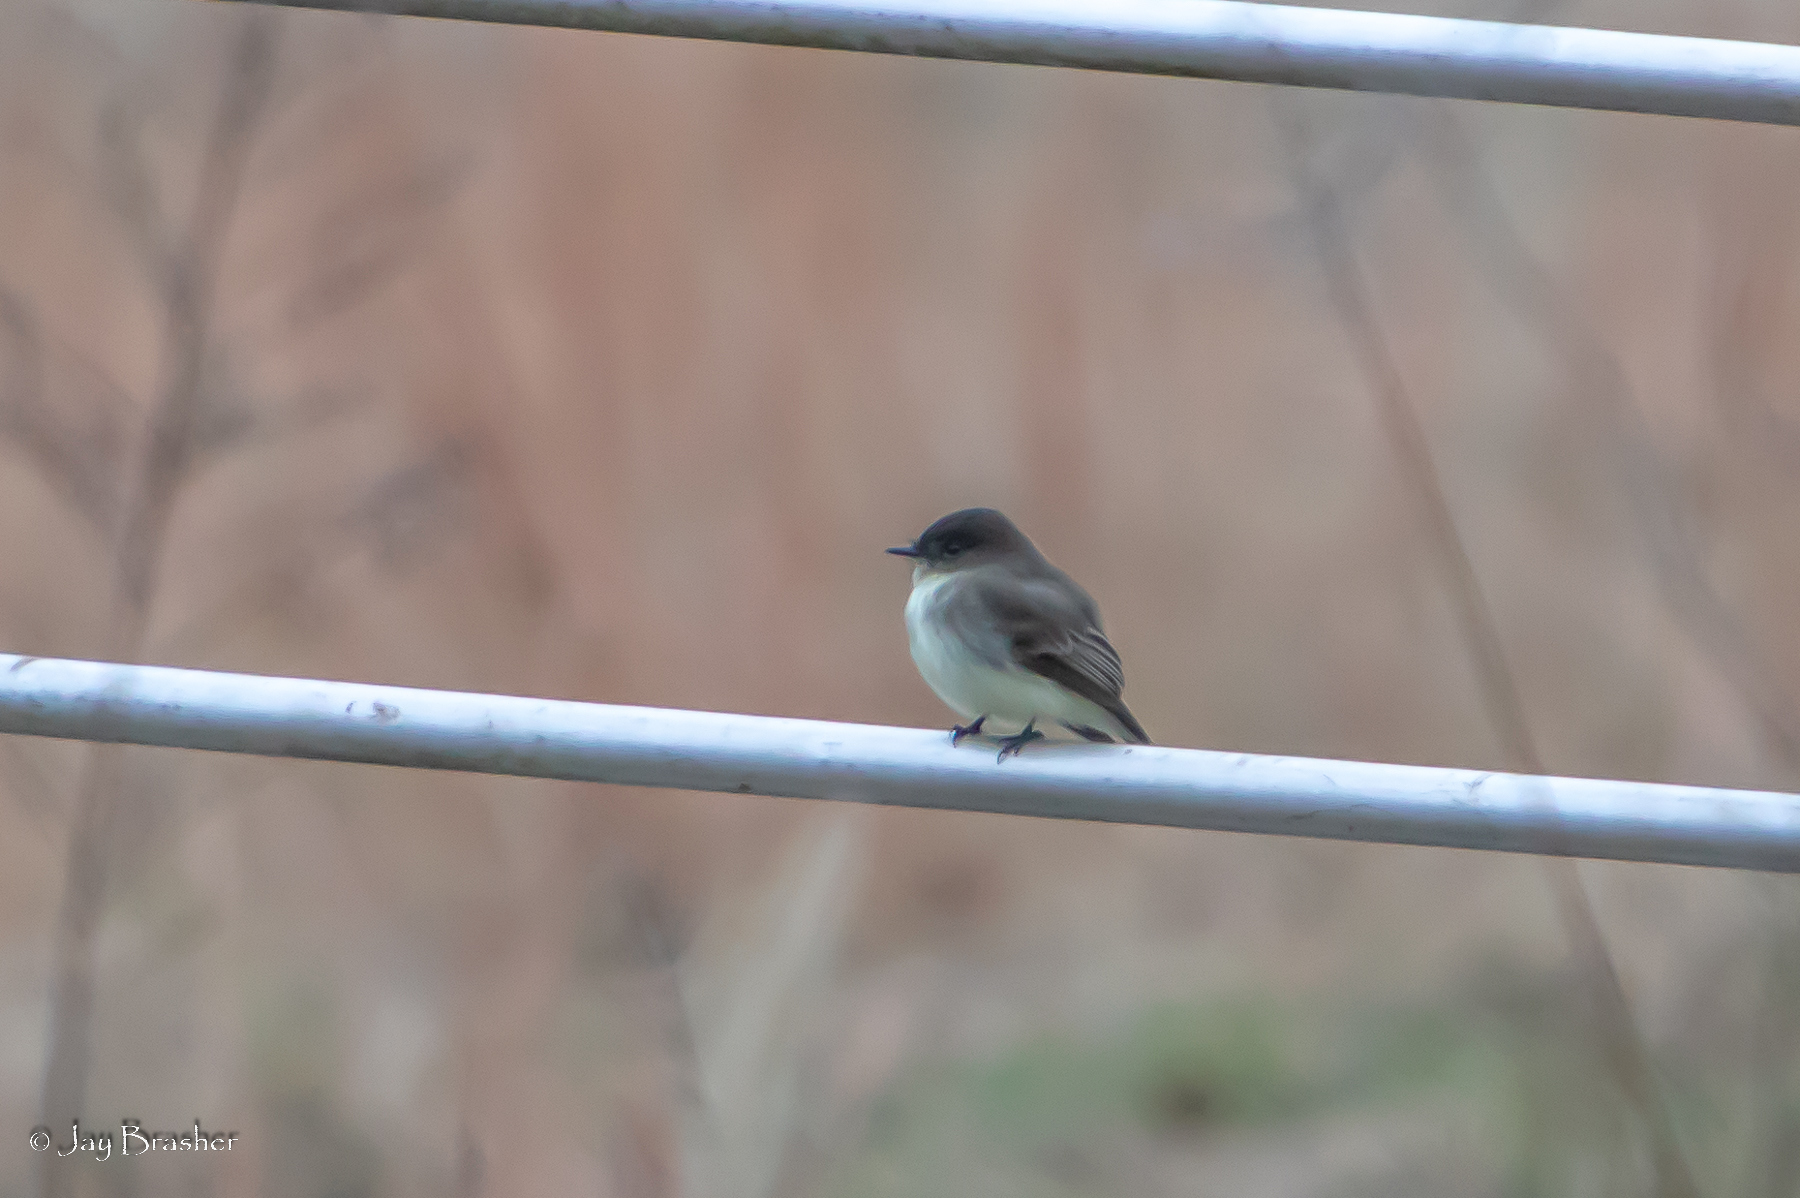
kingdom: Animalia
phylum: Chordata
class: Aves
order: Passeriformes
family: Tyrannidae
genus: Sayornis
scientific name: Sayornis phoebe
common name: Eastern phoebe
